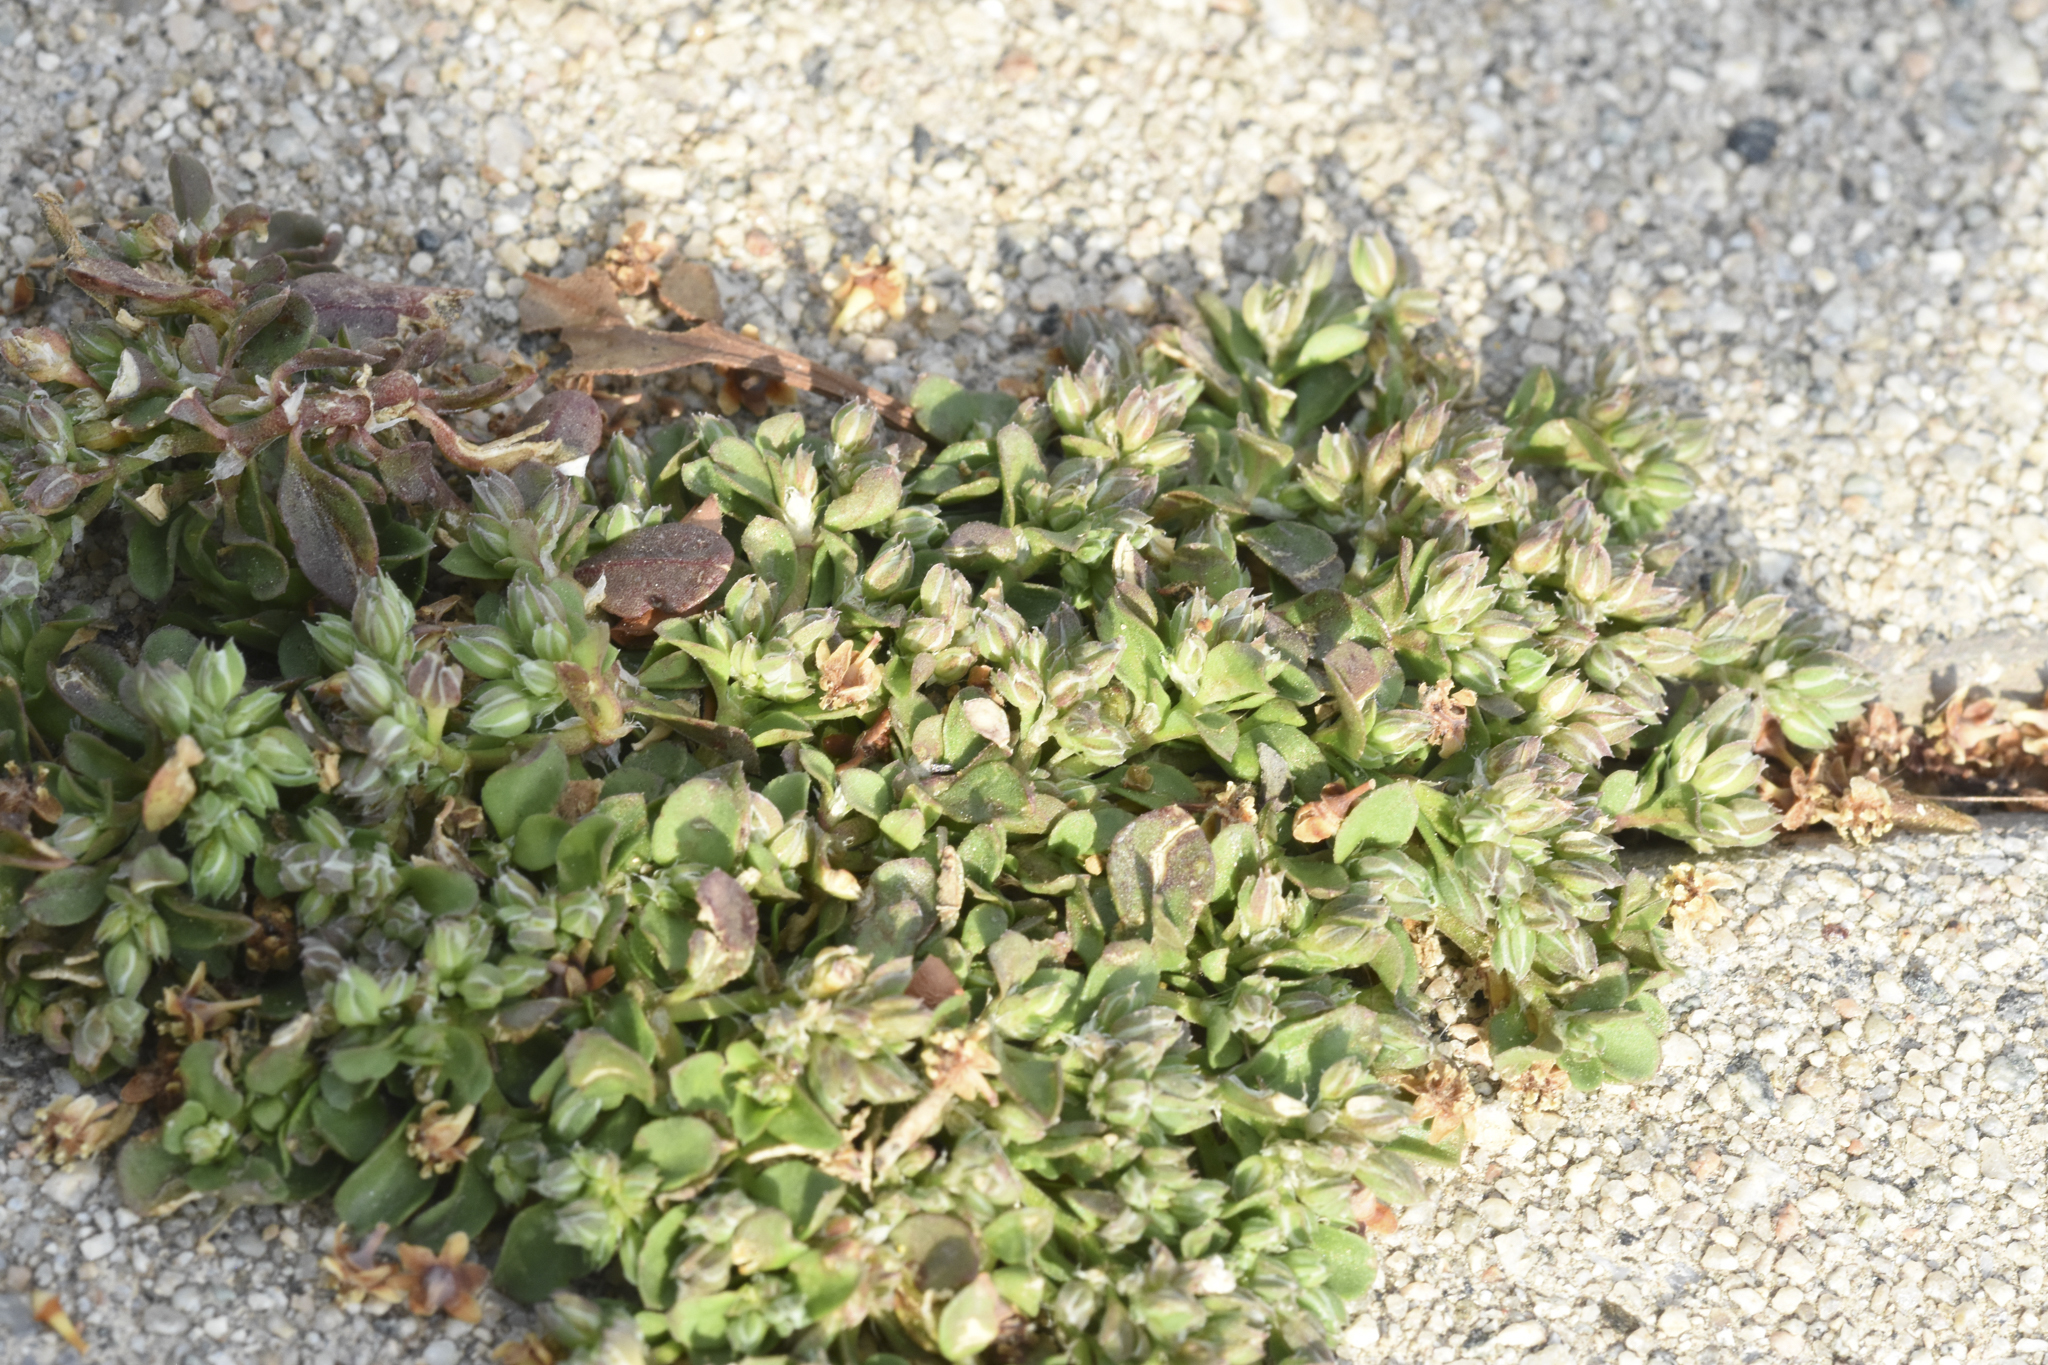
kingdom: Plantae
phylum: Tracheophyta
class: Magnoliopsida
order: Caryophyllales
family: Caryophyllaceae
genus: Polycarpon
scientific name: Polycarpon tetraphyllum
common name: Four-leaved all-seed
